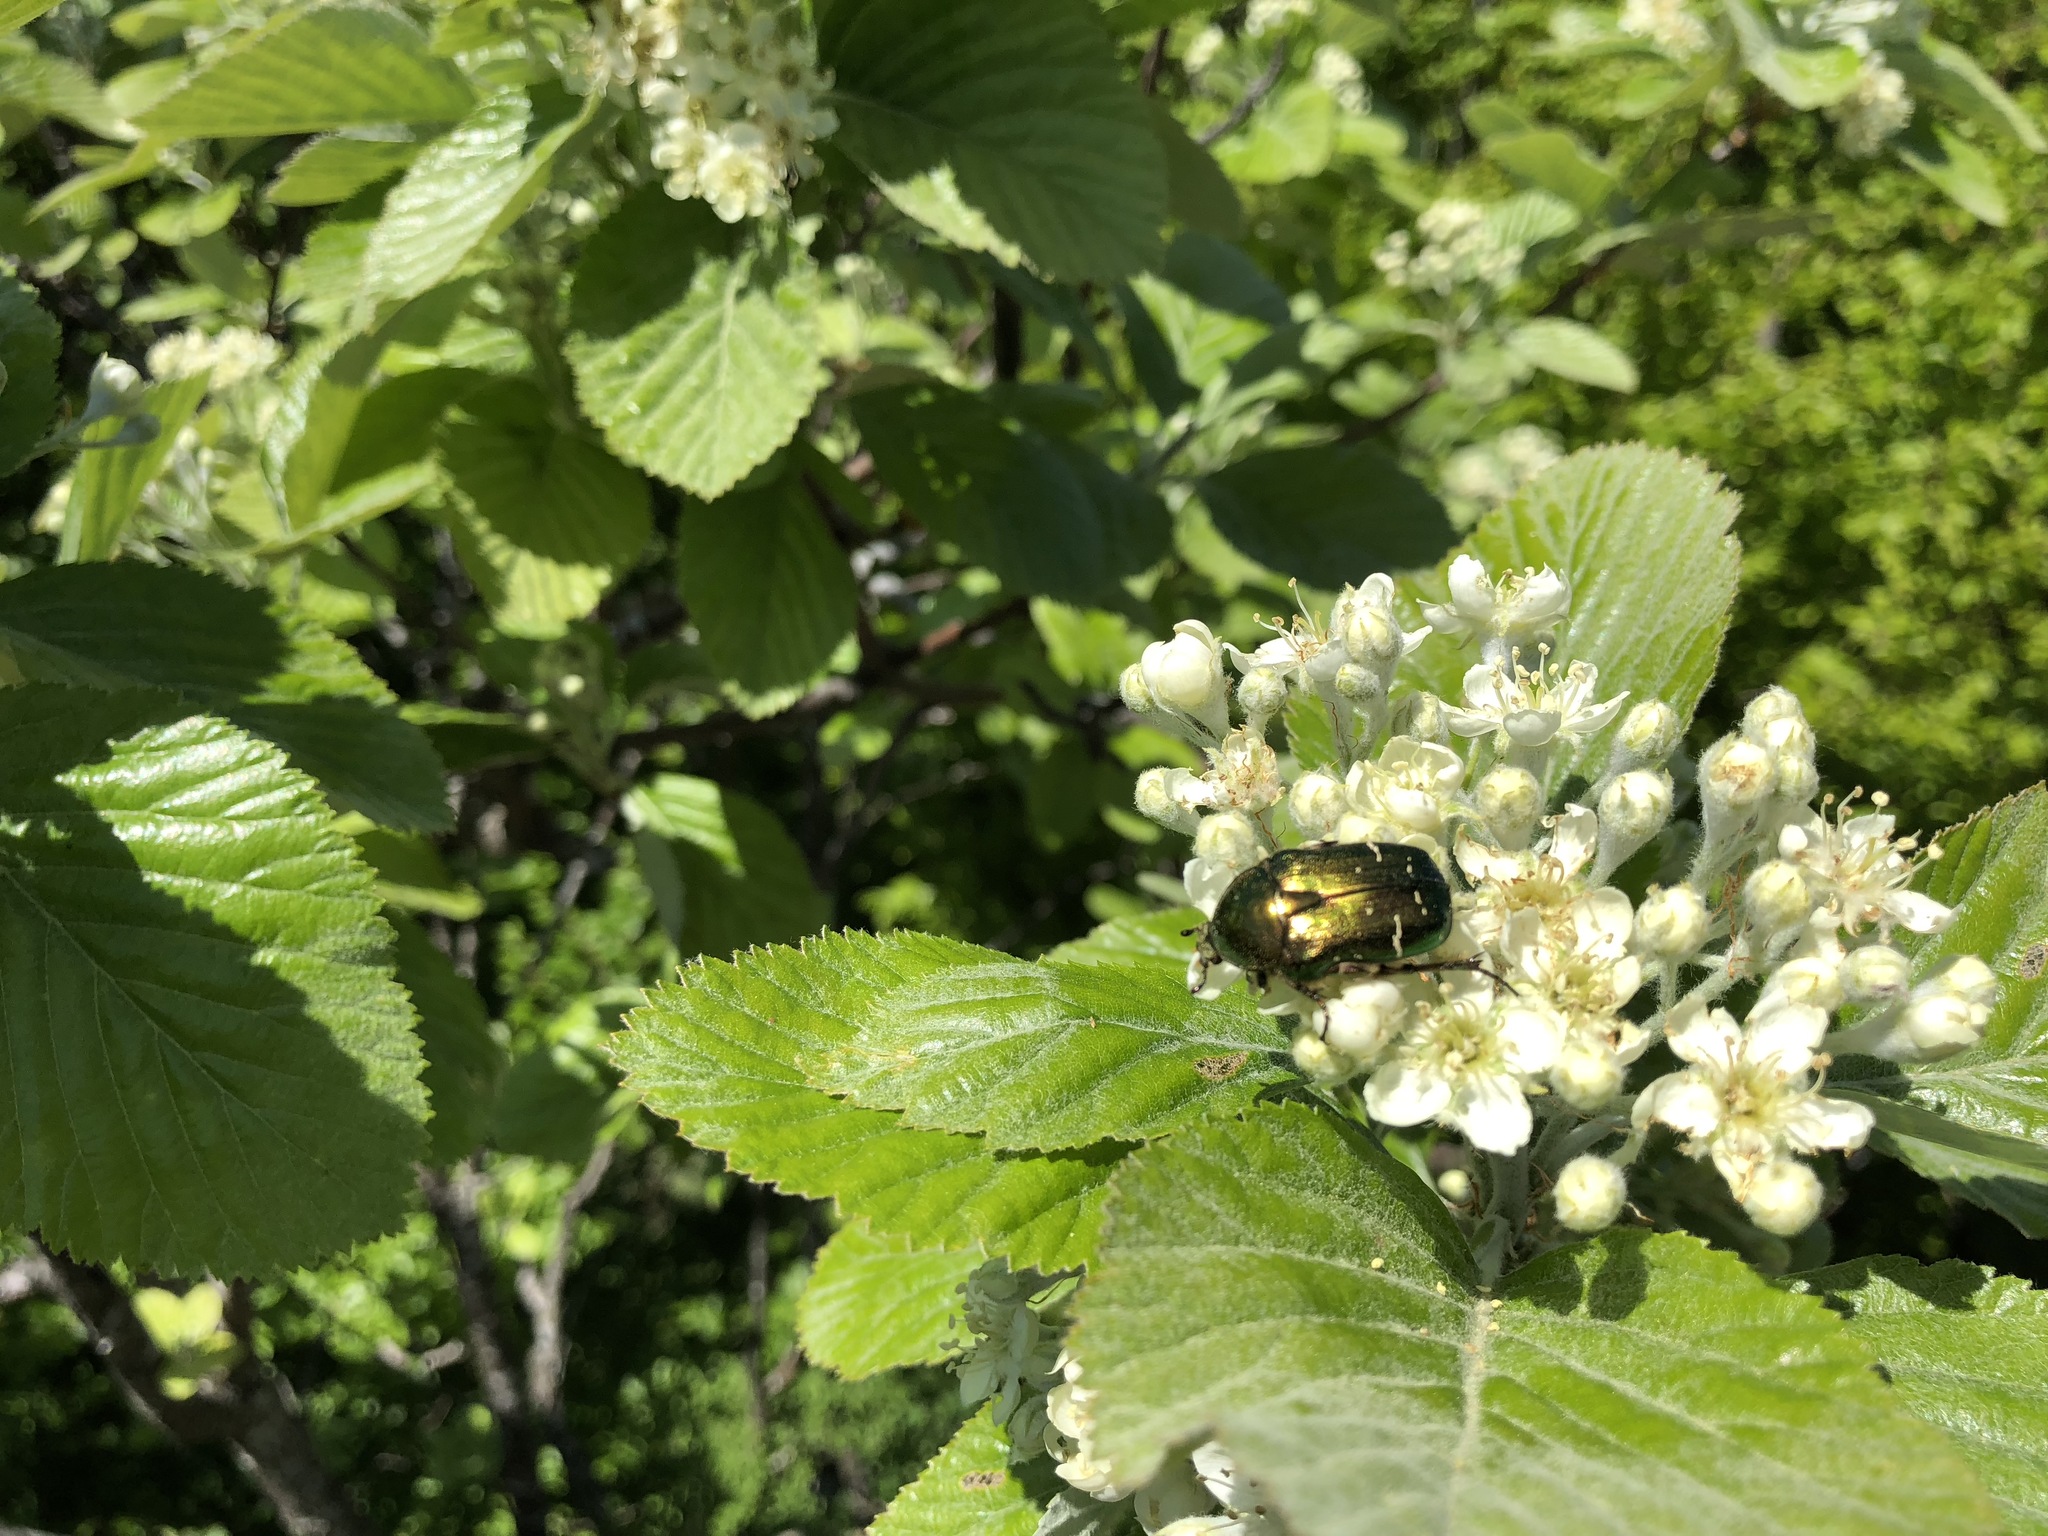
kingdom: Animalia
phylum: Arthropoda
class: Insecta
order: Coleoptera
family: Scarabaeidae
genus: Cetonia
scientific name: Cetonia aurata
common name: Rose chafer
